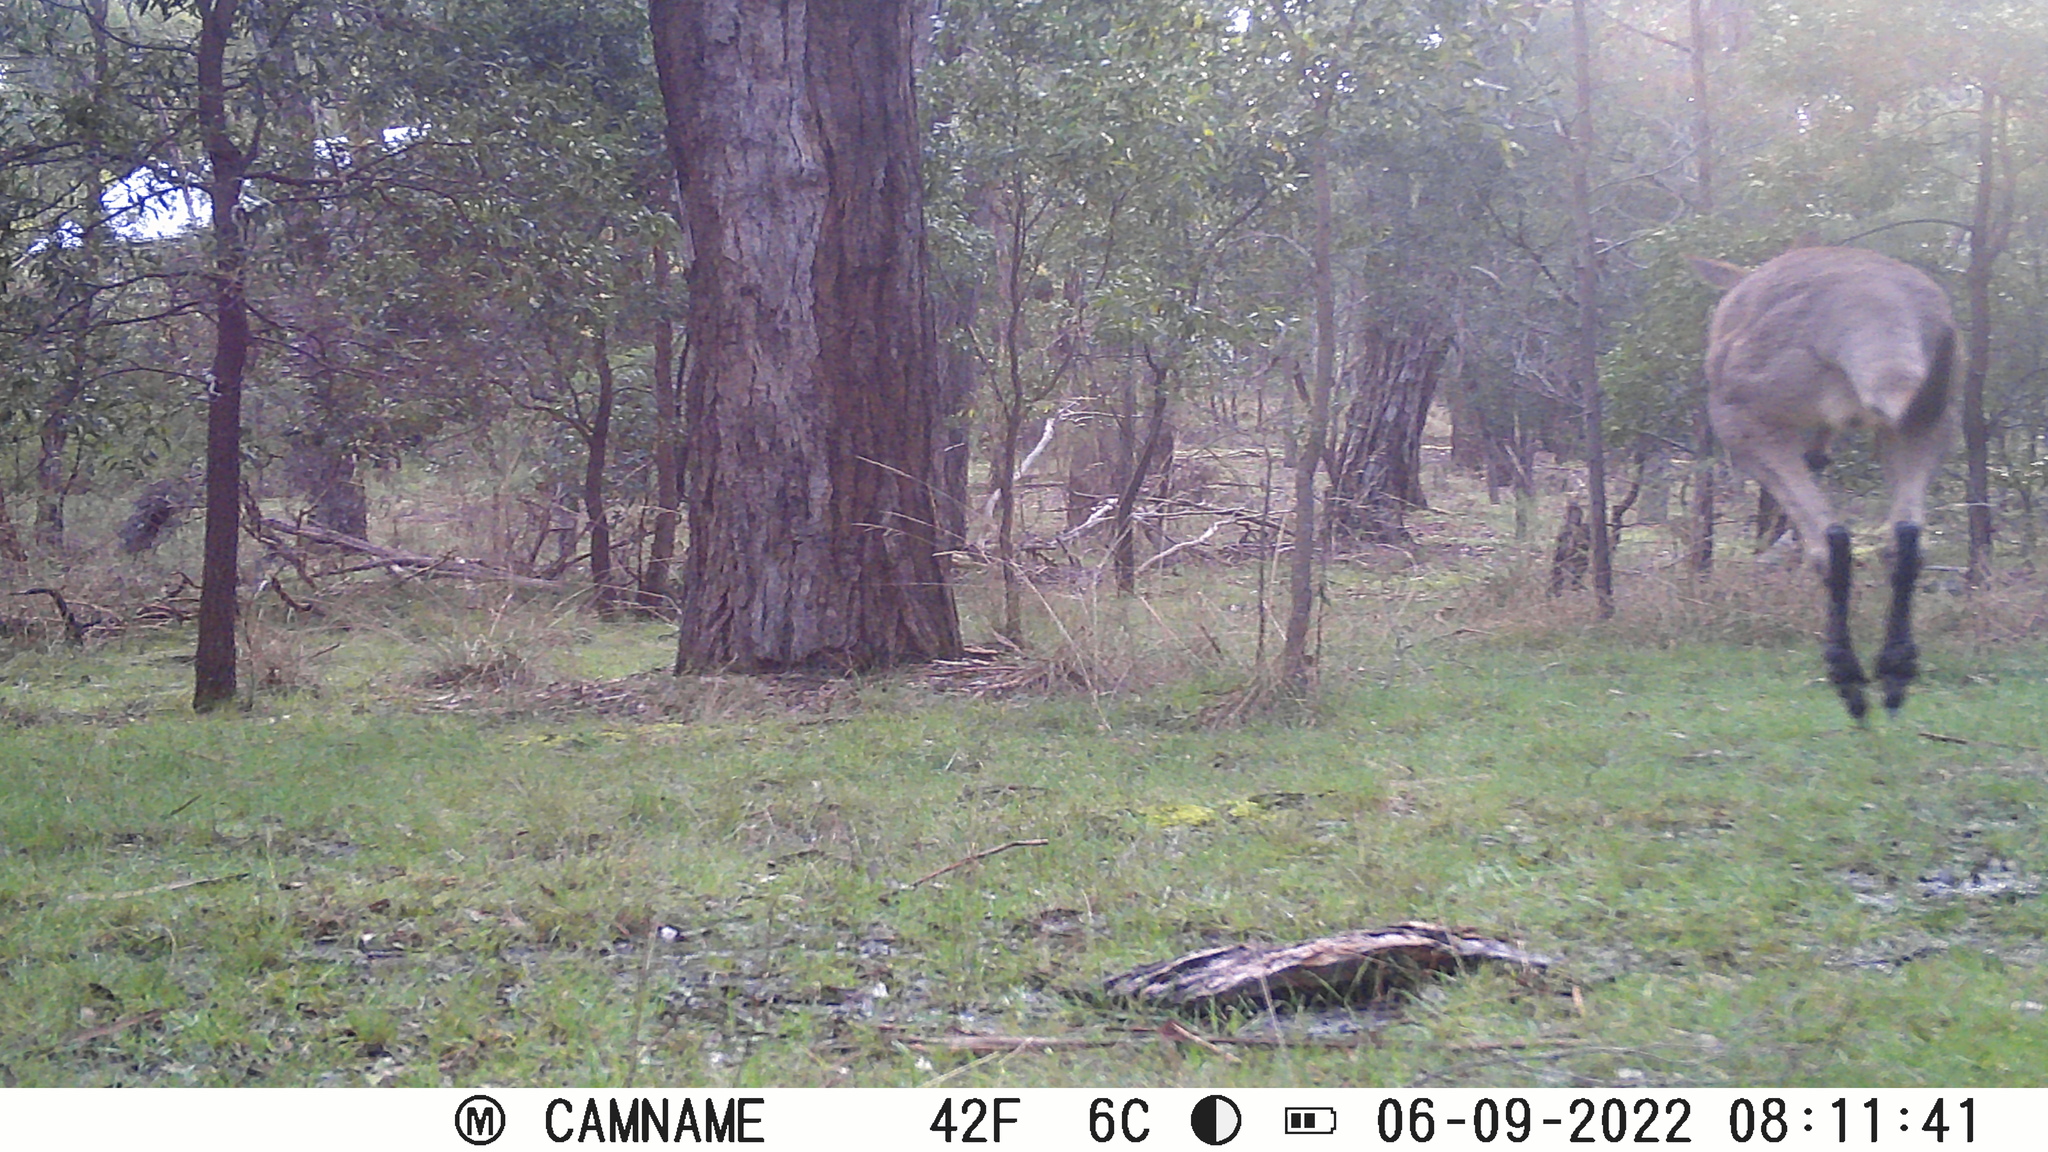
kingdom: Animalia
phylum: Chordata
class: Mammalia
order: Diprotodontia
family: Macropodidae
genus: Macropus
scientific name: Macropus giganteus
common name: Eastern grey kangaroo
